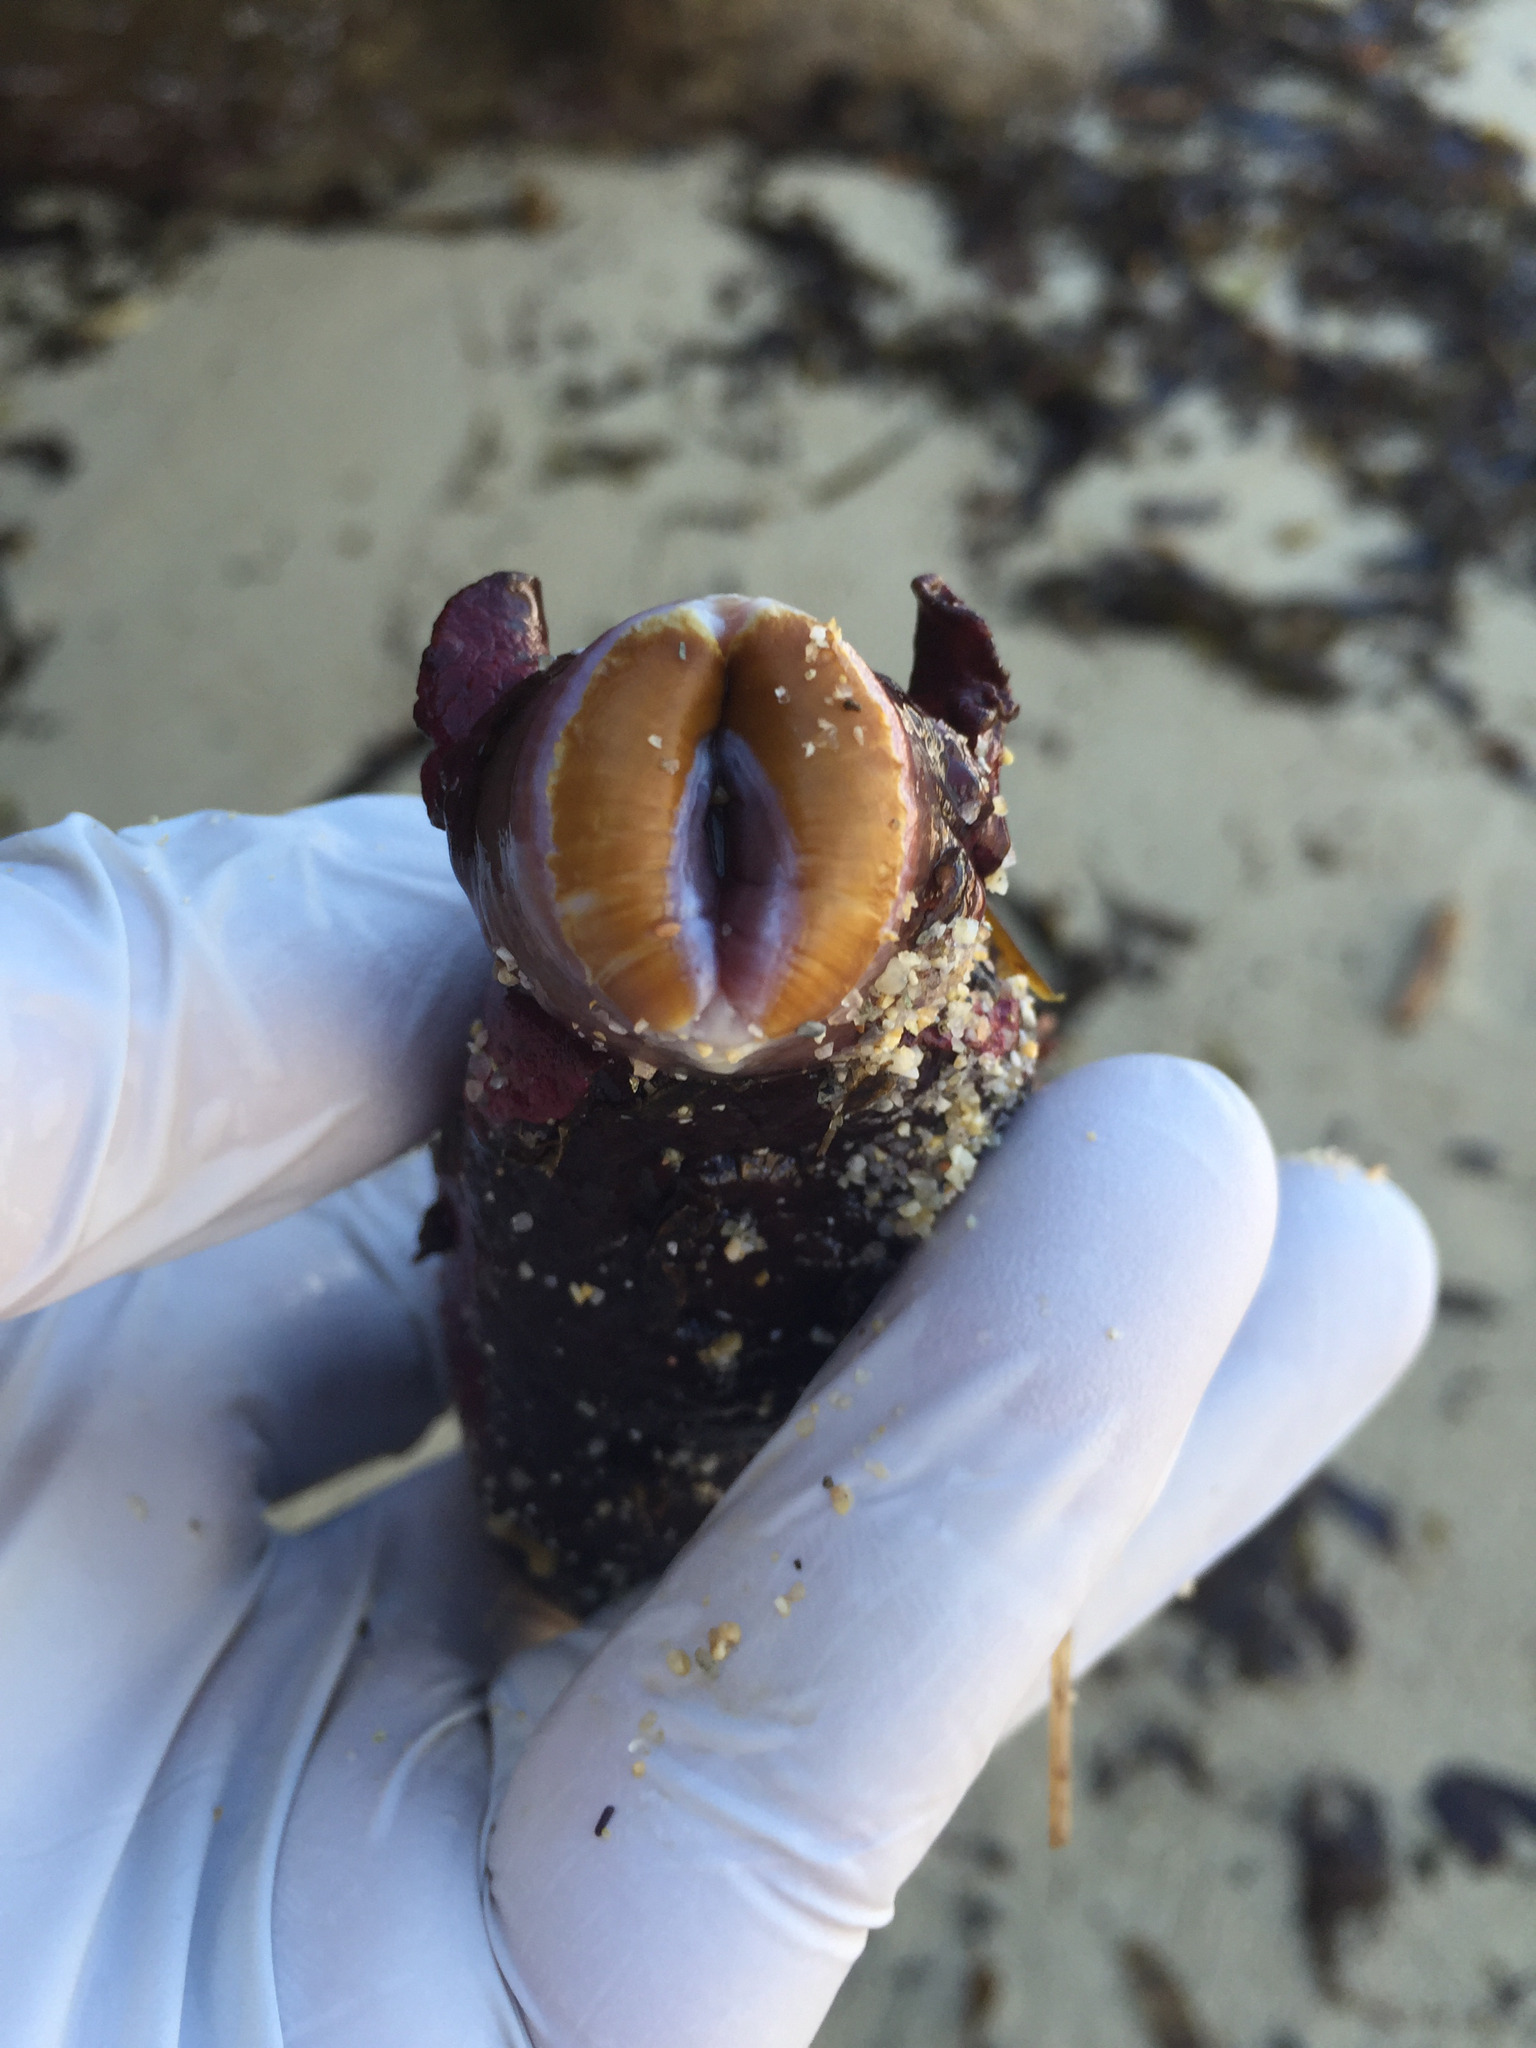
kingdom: Animalia
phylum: Mollusca
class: Gastropoda
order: Aplysiida
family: Aplysiidae
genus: Aplysia
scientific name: Aplysia californica
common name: California seahare
